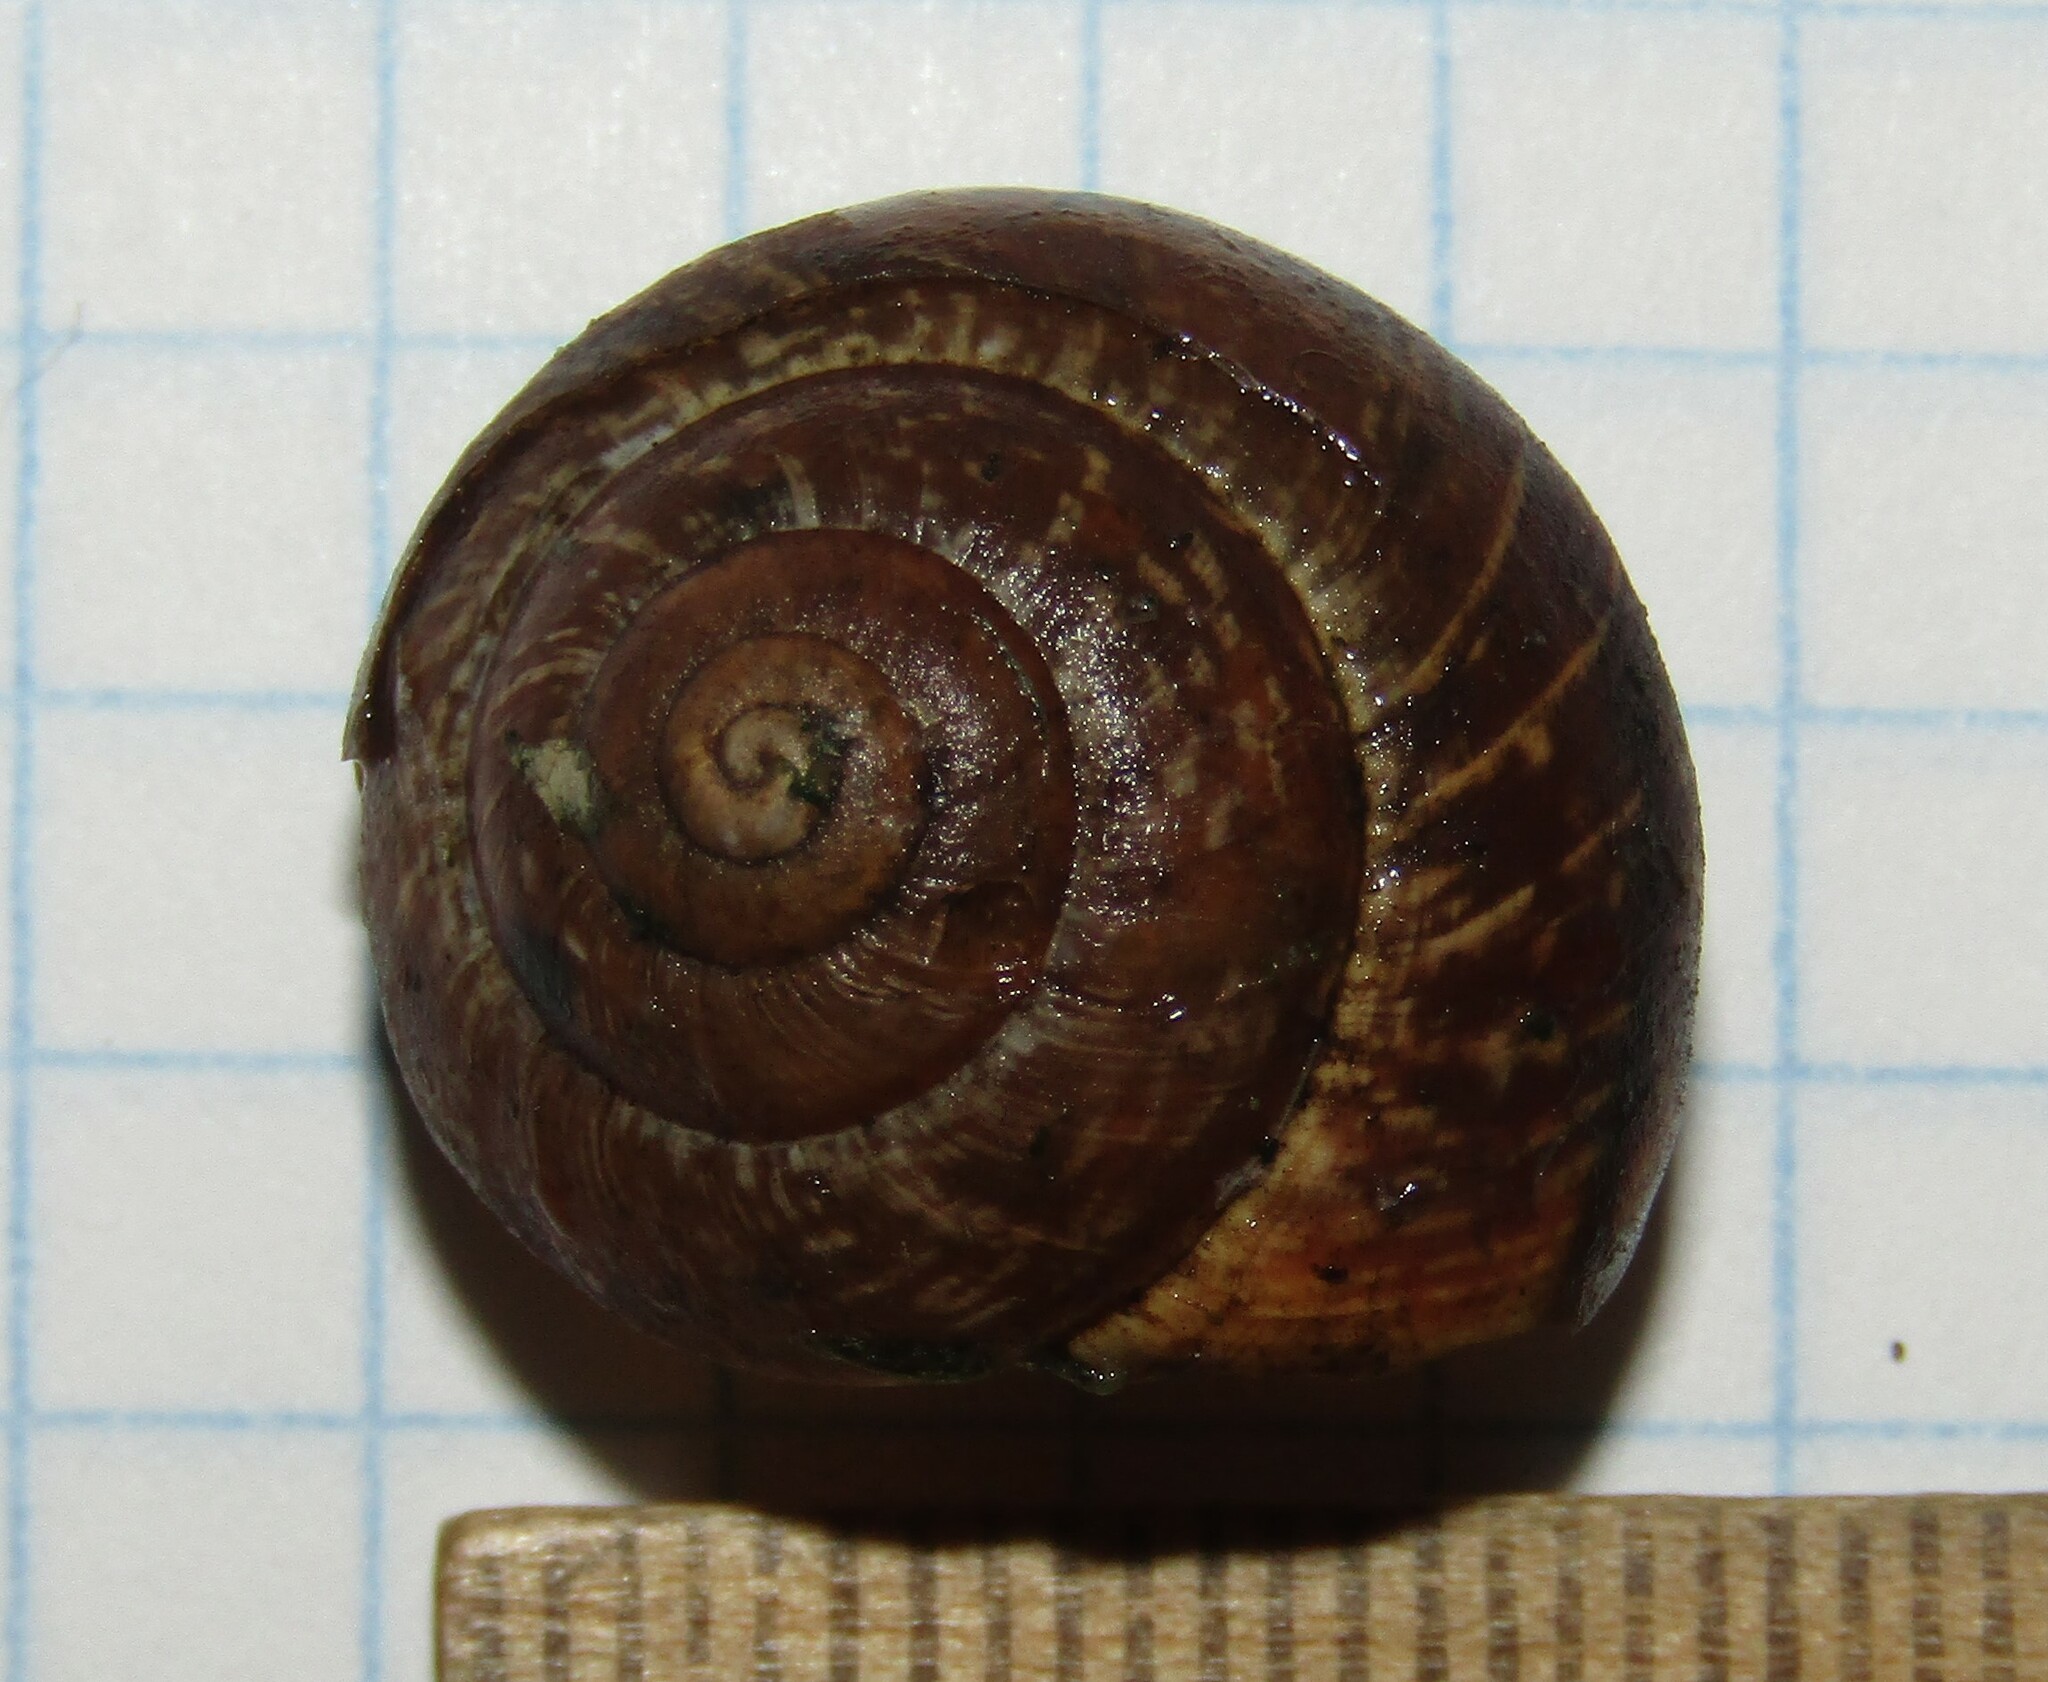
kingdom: Animalia
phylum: Mollusca
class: Gastropoda
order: Stylommatophora
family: Helicidae
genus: Arianta
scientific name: Arianta arbustorum
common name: Copse snail
